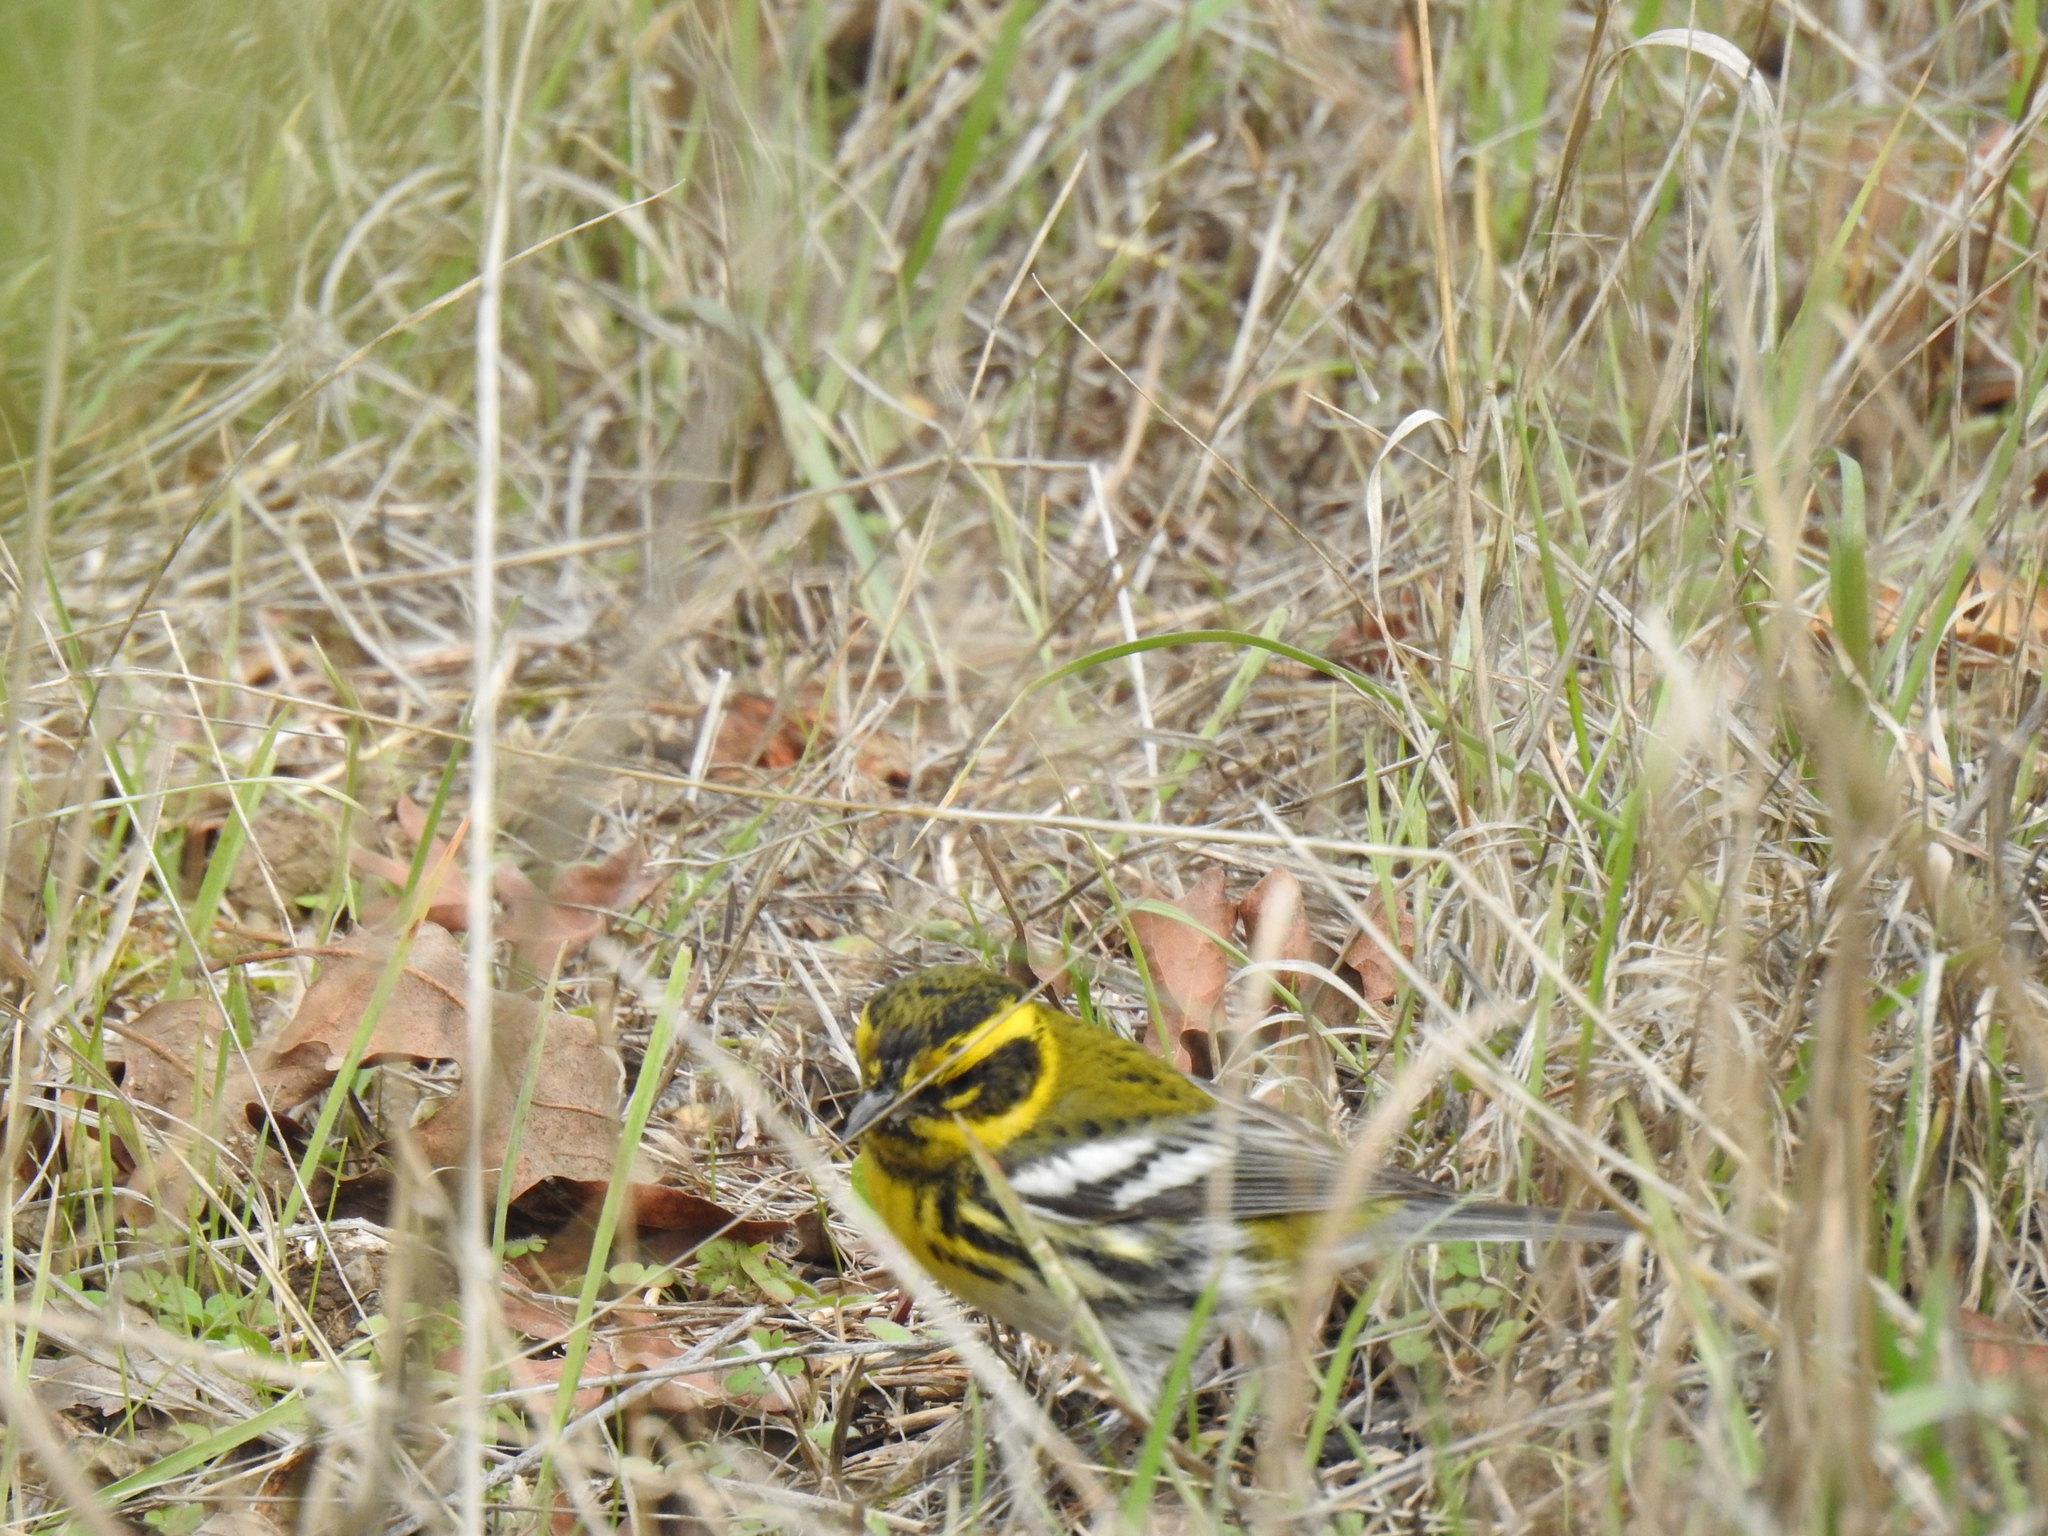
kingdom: Animalia
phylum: Chordata
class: Aves
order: Passeriformes
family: Parulidae
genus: Setophaga
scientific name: Setophaga townsendi
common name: Townsend's warbler
